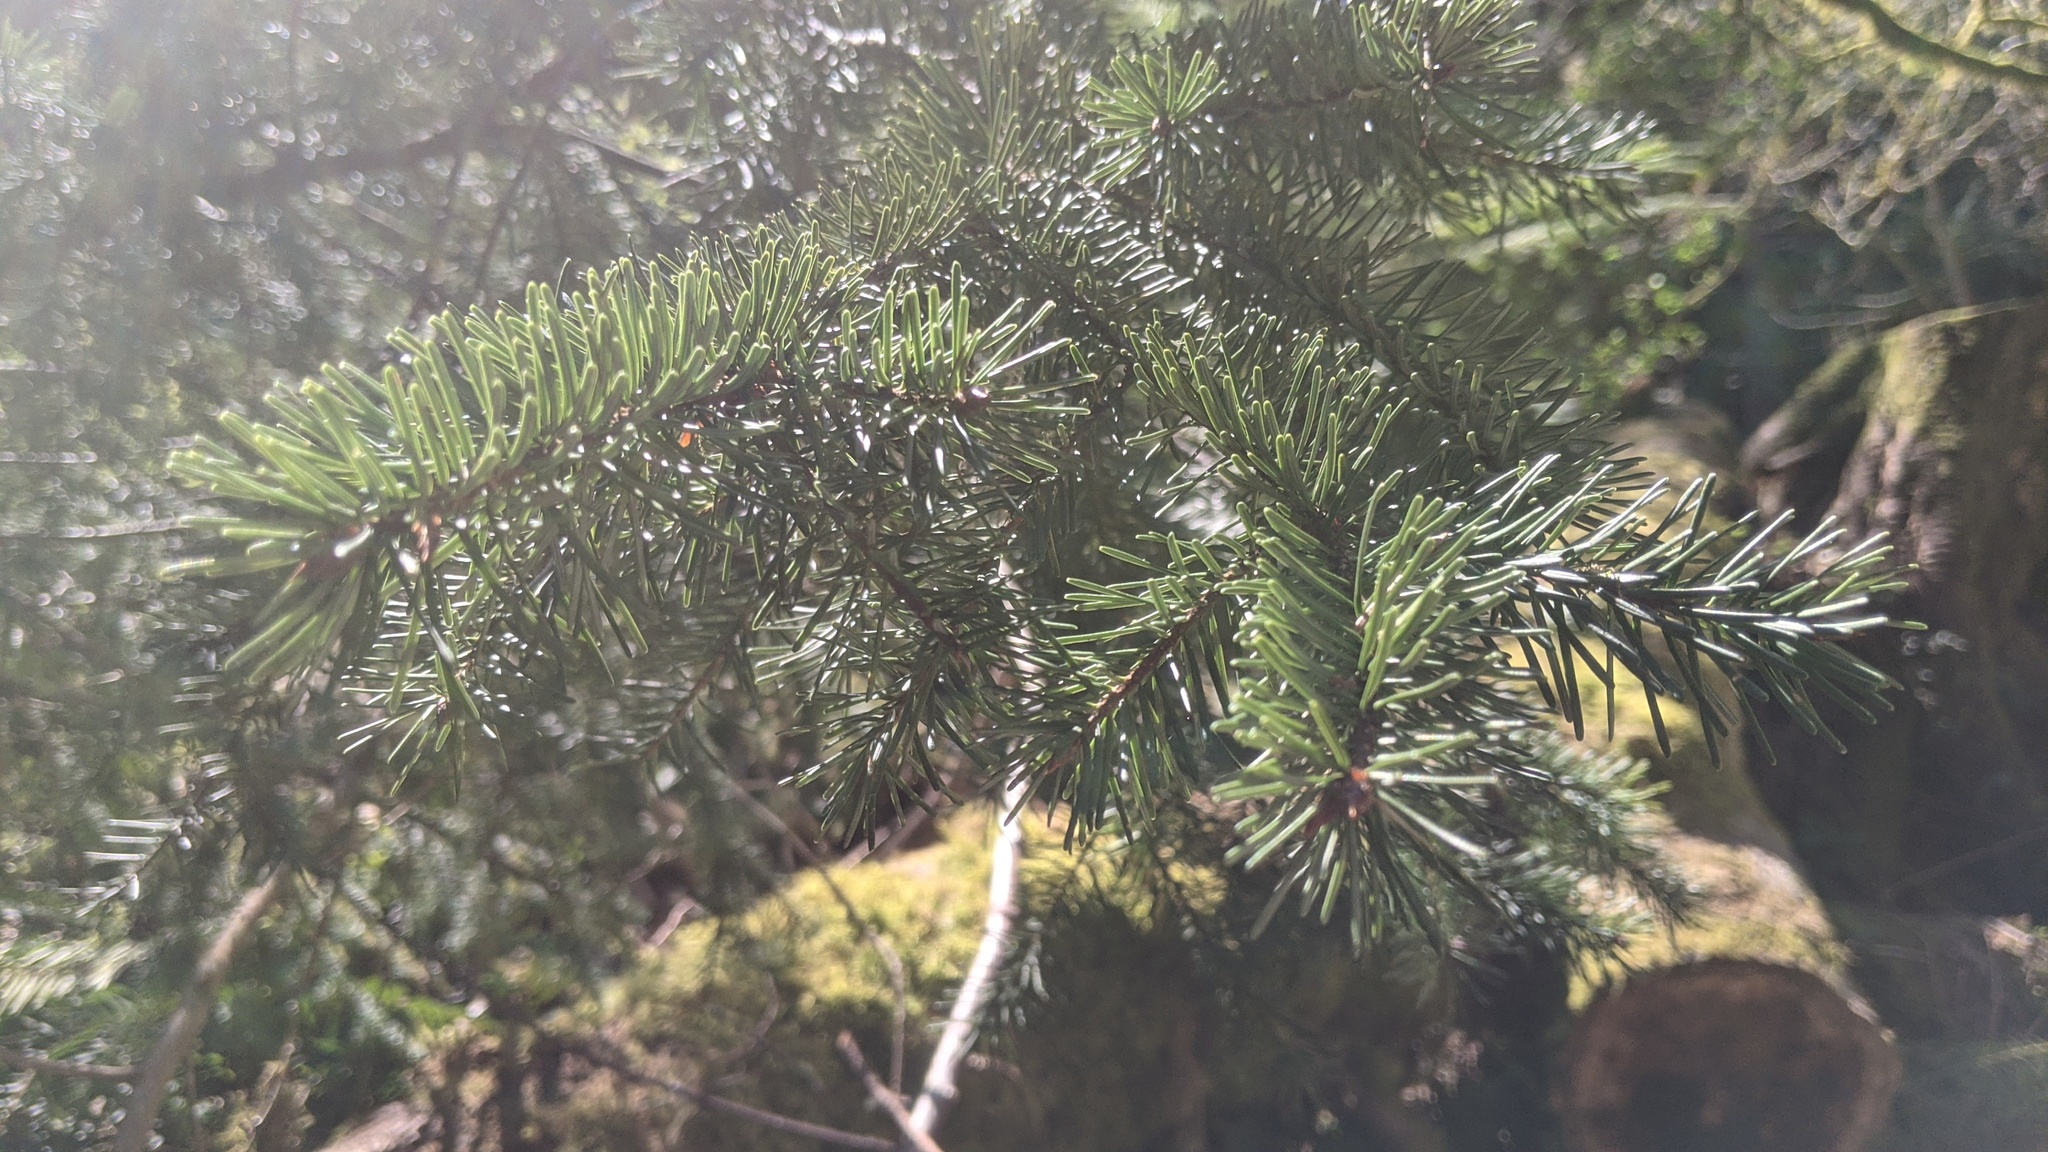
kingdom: Plantae
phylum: Tracheophyta
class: Pinopsida
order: Pinales
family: Pinaceae
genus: Pseudotsuga
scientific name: Pseudotsuga menziesii
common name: Douglas fir
